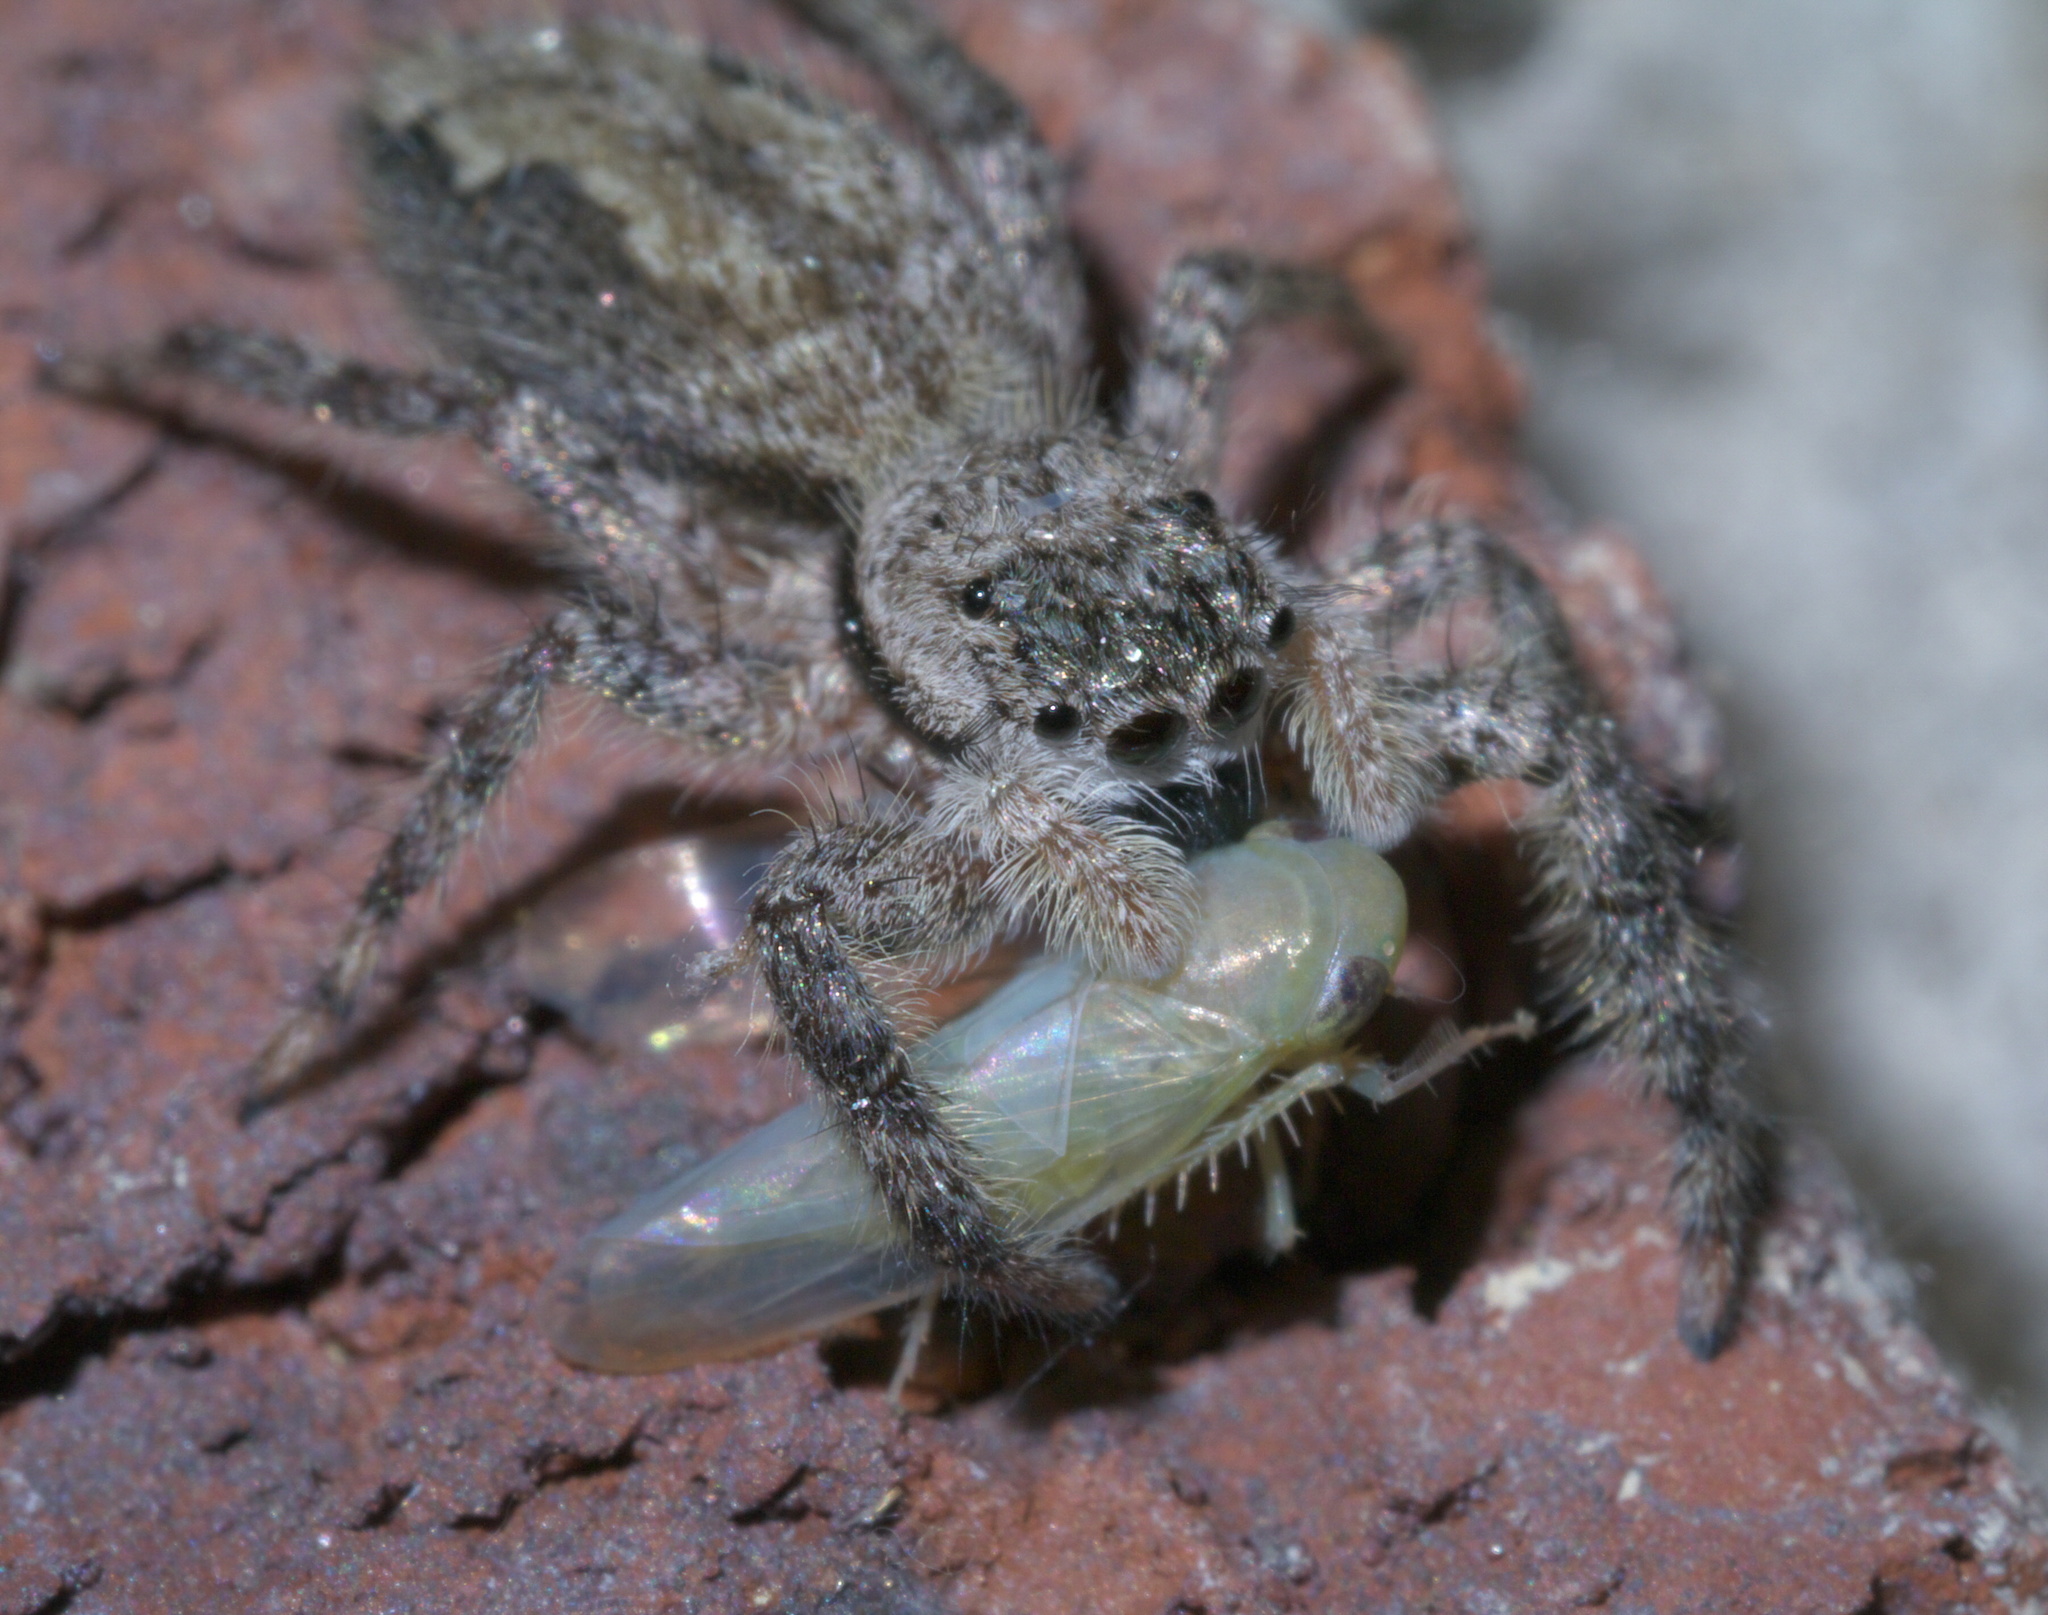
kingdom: Animalia
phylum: Arthropoda
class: Arachnida
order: Araneae
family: Salticidae
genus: Platycryptus
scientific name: Platycryptus undatus
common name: Tan jumping spider
